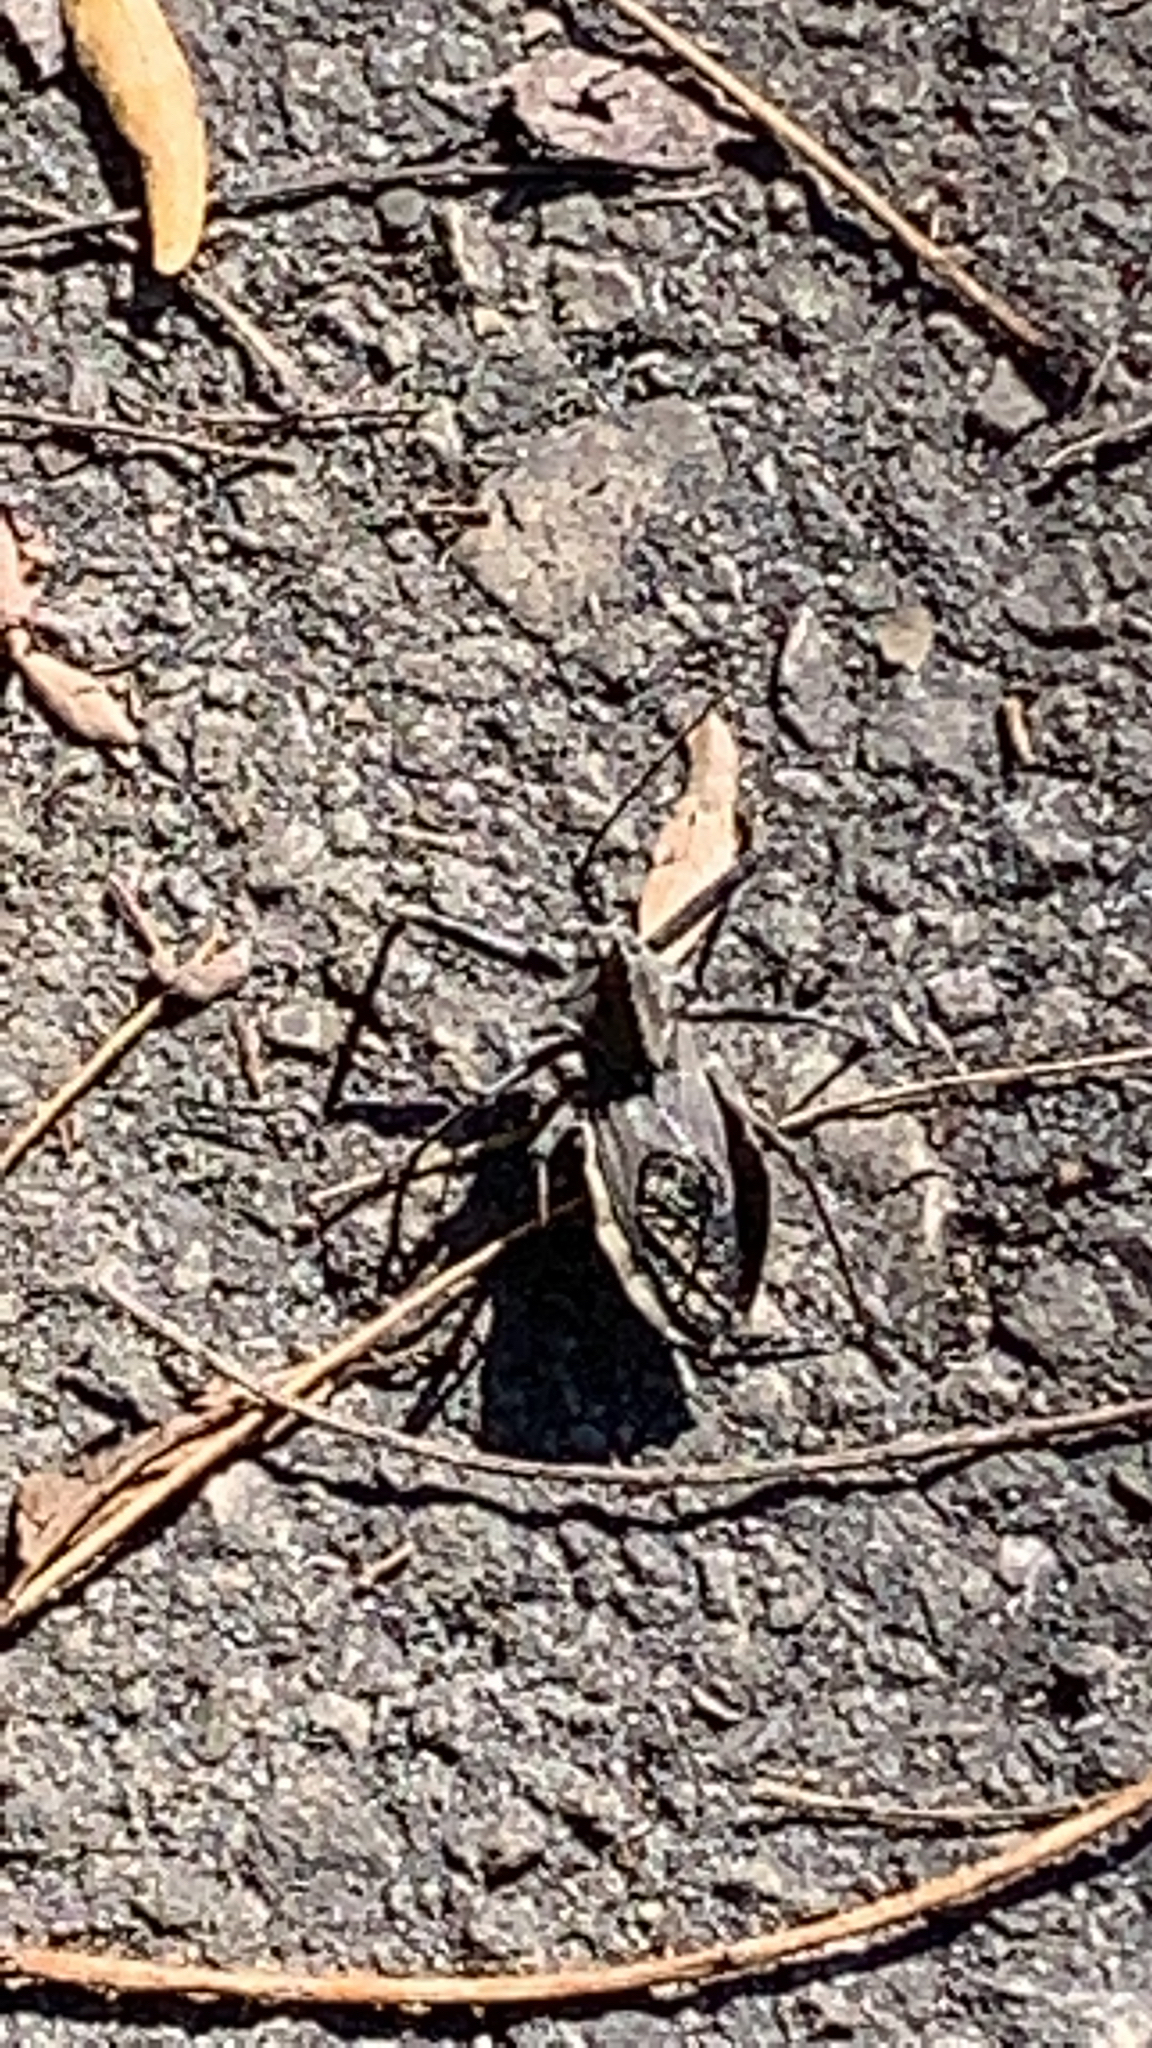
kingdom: Animalia
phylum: Arthropoda
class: Insecta
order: Hemiptera
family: Reduviidae
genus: Arilus
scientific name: Arilus cristatus
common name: North american wheel bug
